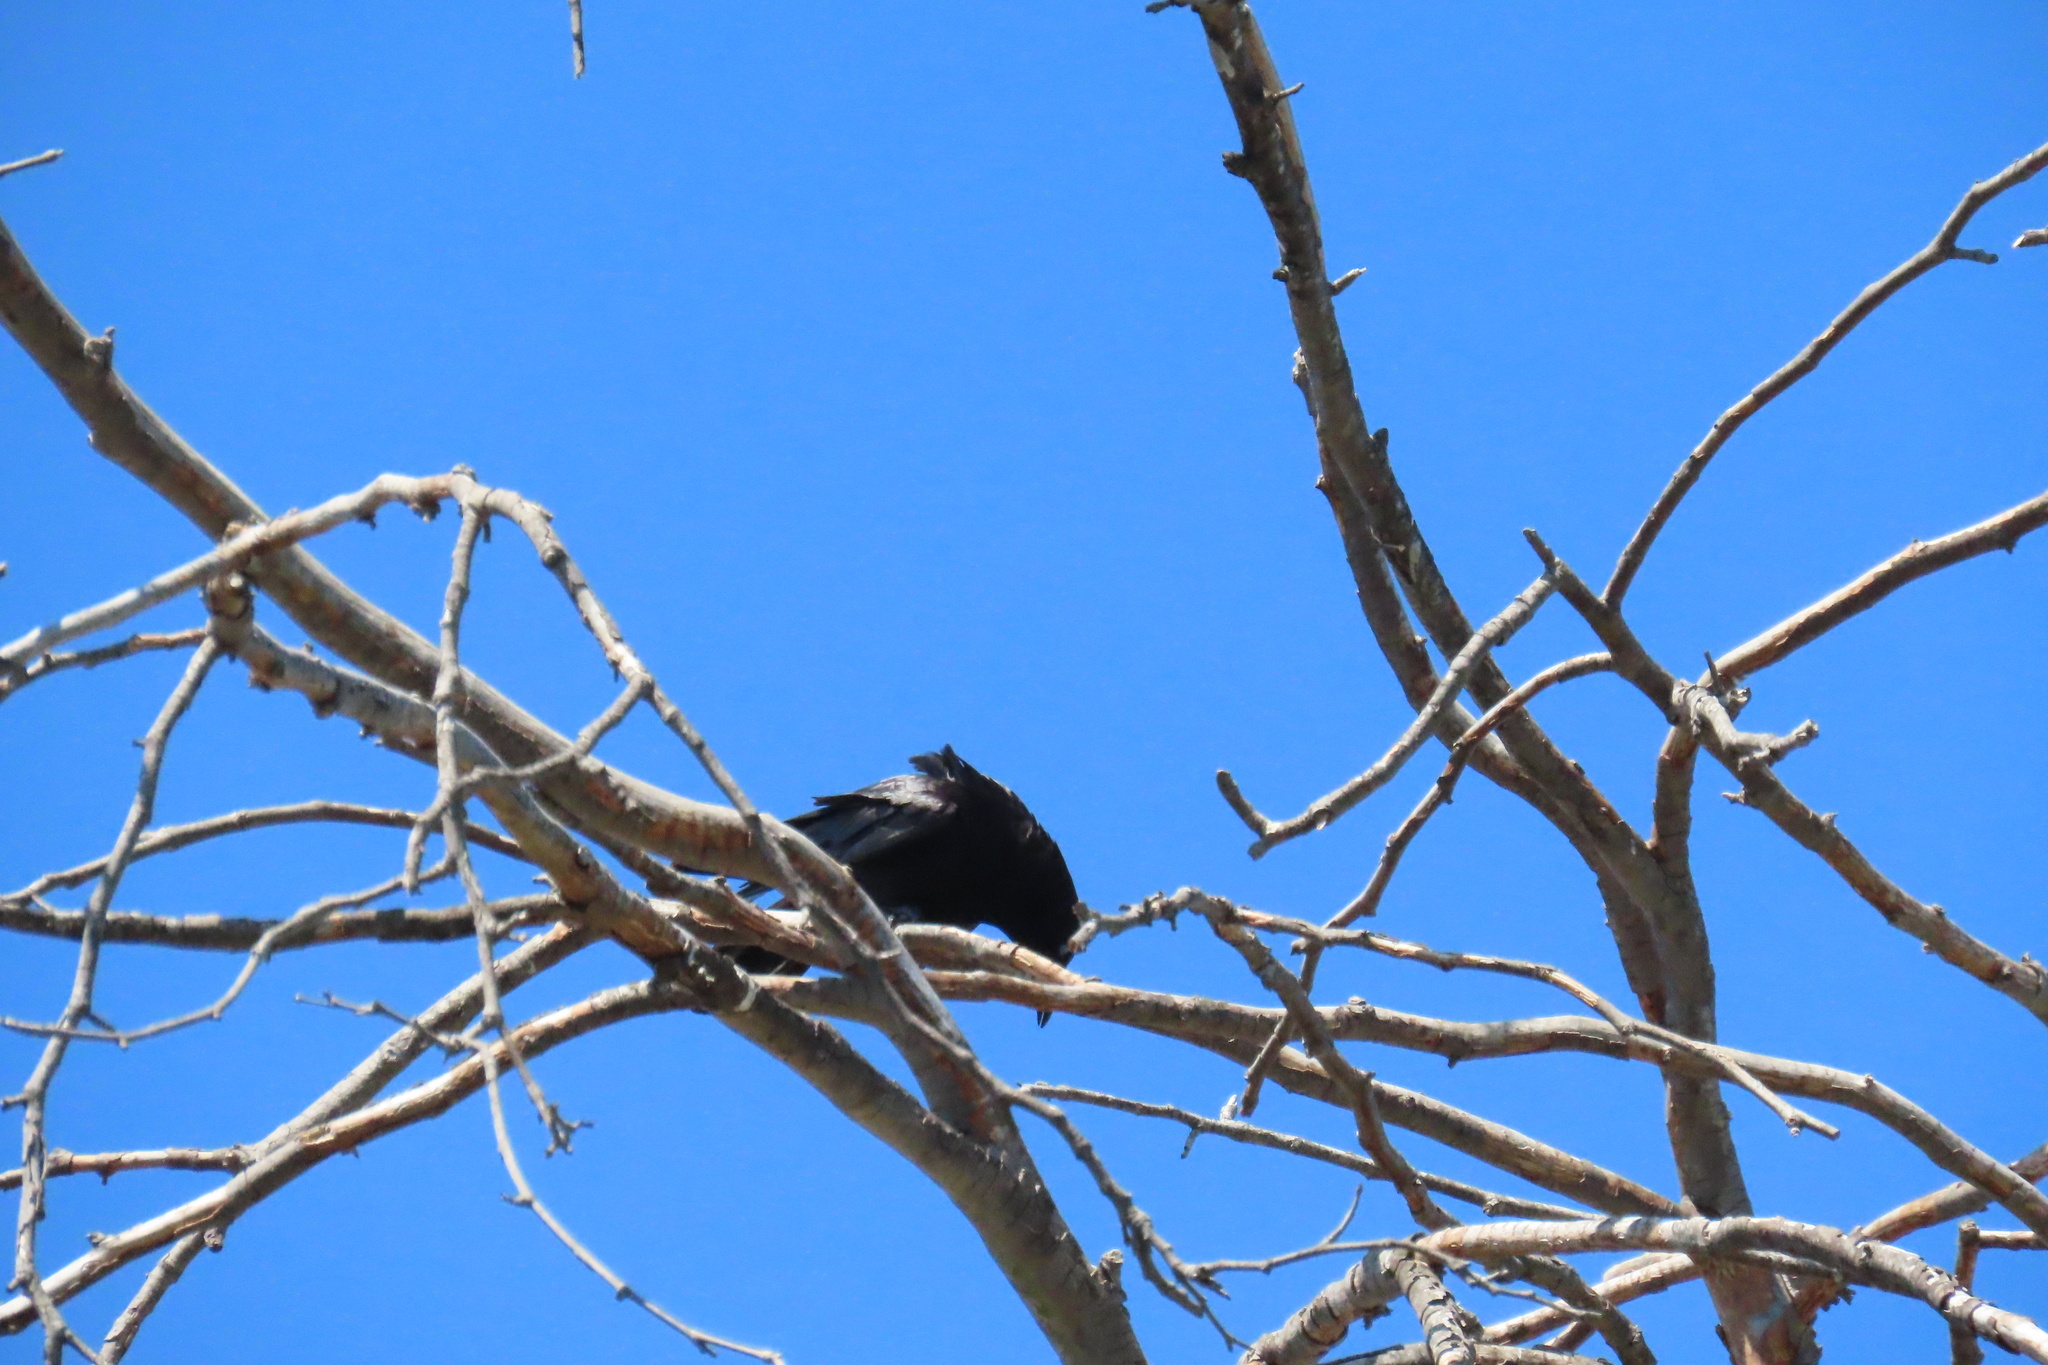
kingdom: Animalia
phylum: Chordata
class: Aves
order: Passeriformes
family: Corvidae
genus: Corvus
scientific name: Corvus brachyrhynchos
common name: American crow
